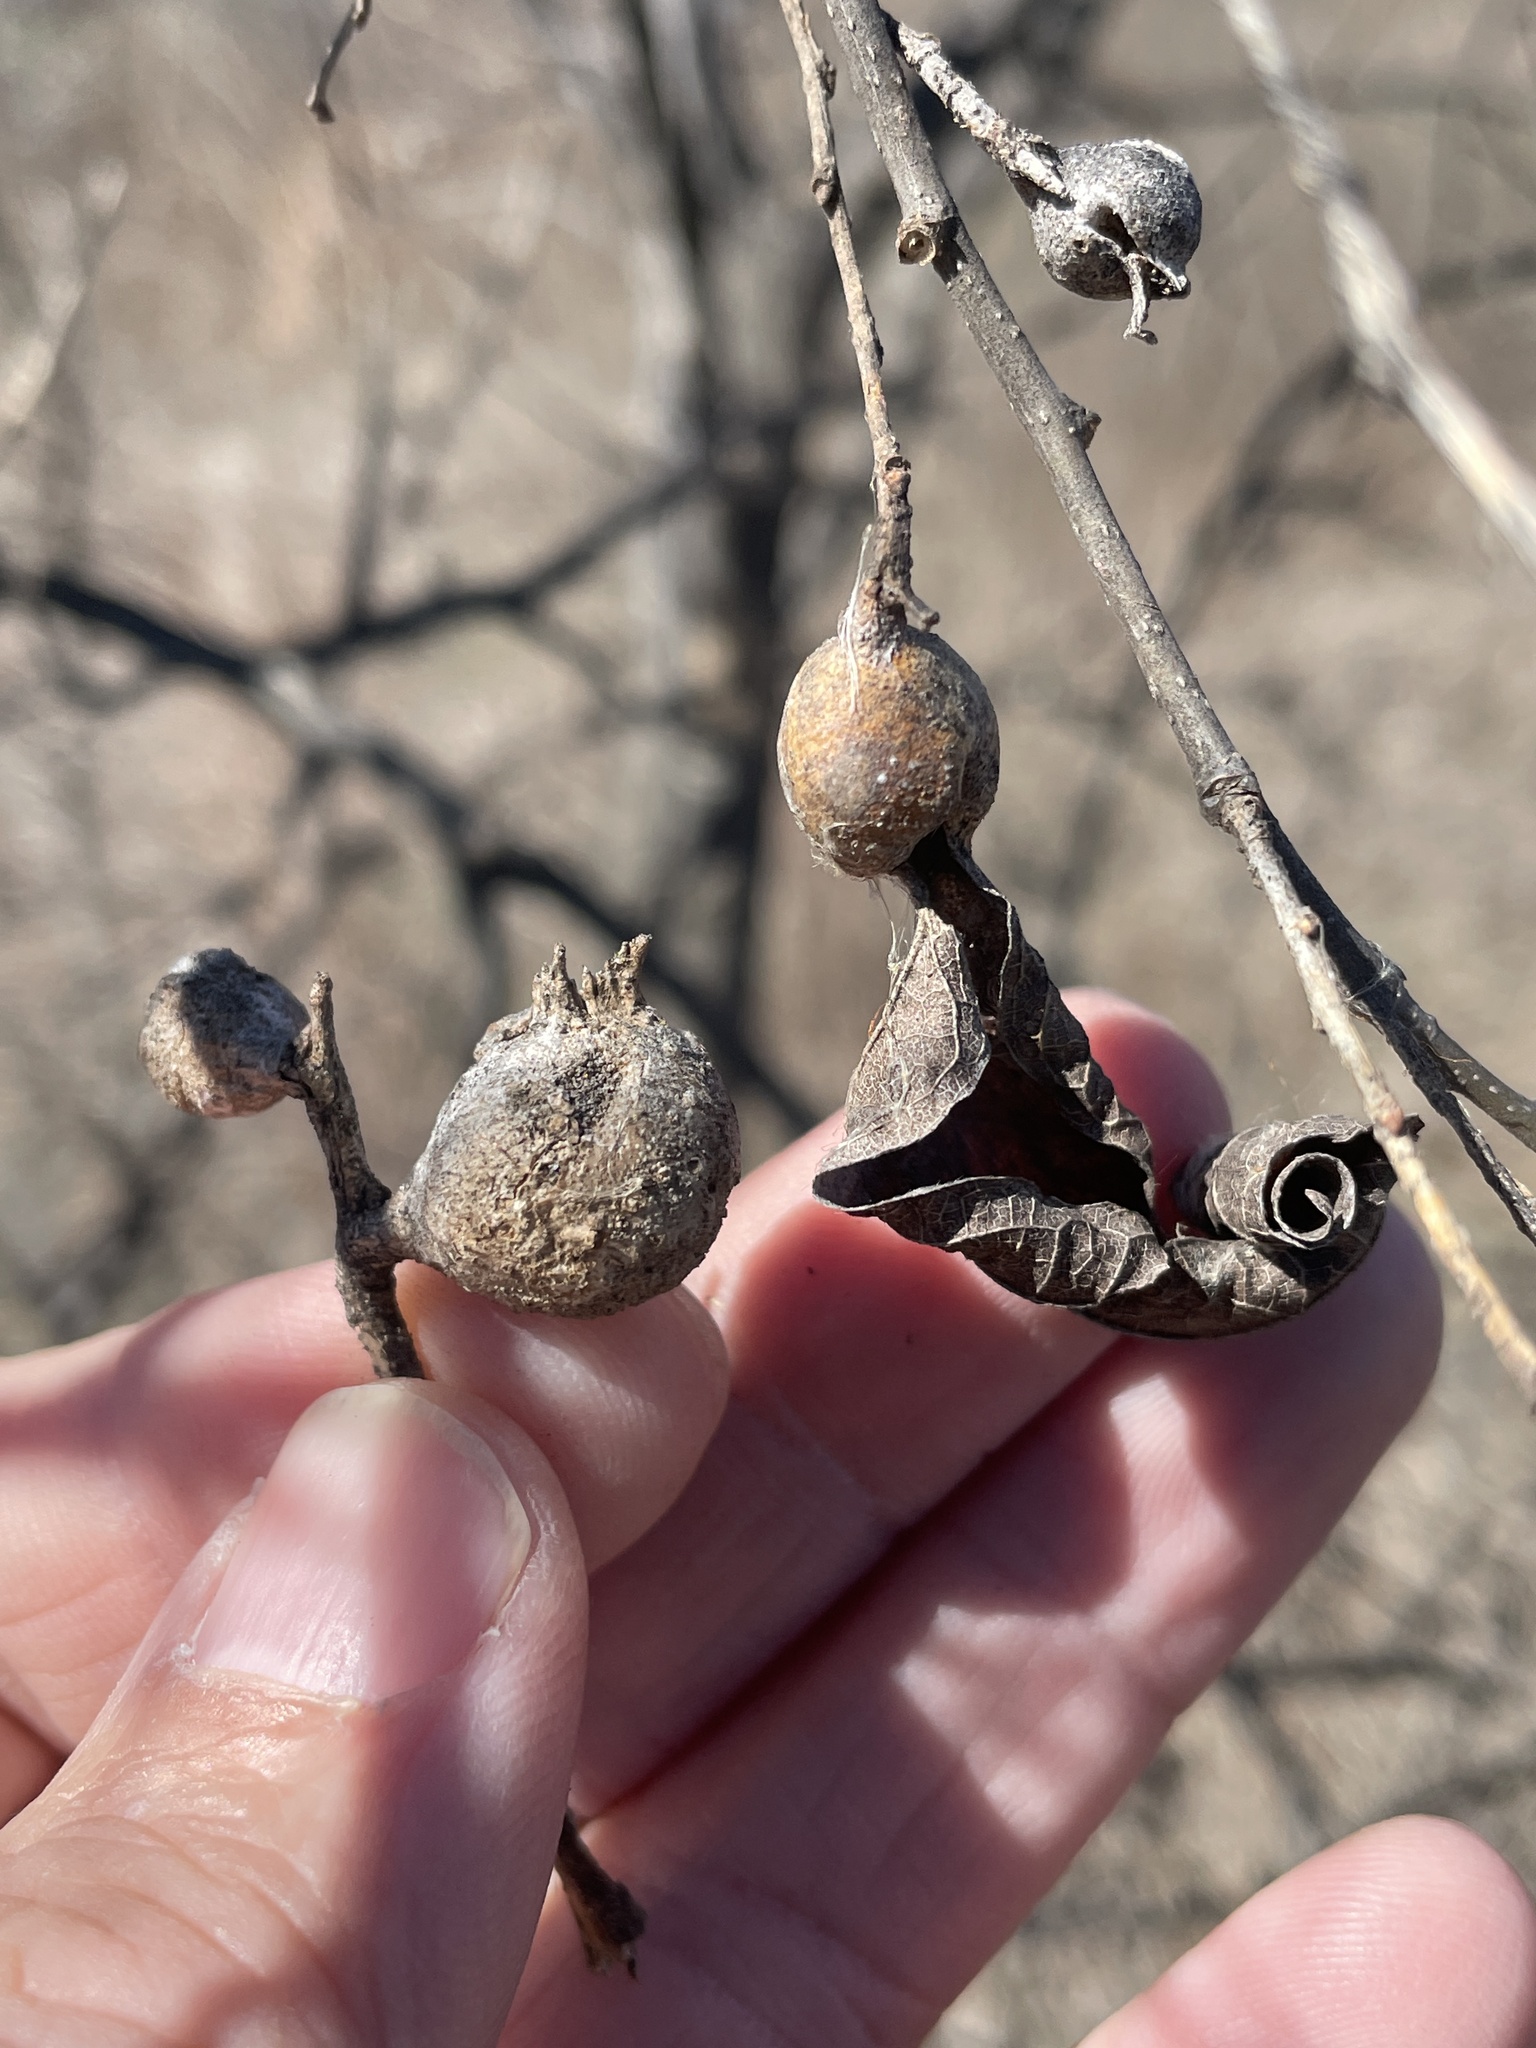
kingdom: Animalia
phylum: Arthropoda
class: Insecta
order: Hemiptera
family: Aphalaridae
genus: Pachypsylla
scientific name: Pachypsylla venusta
